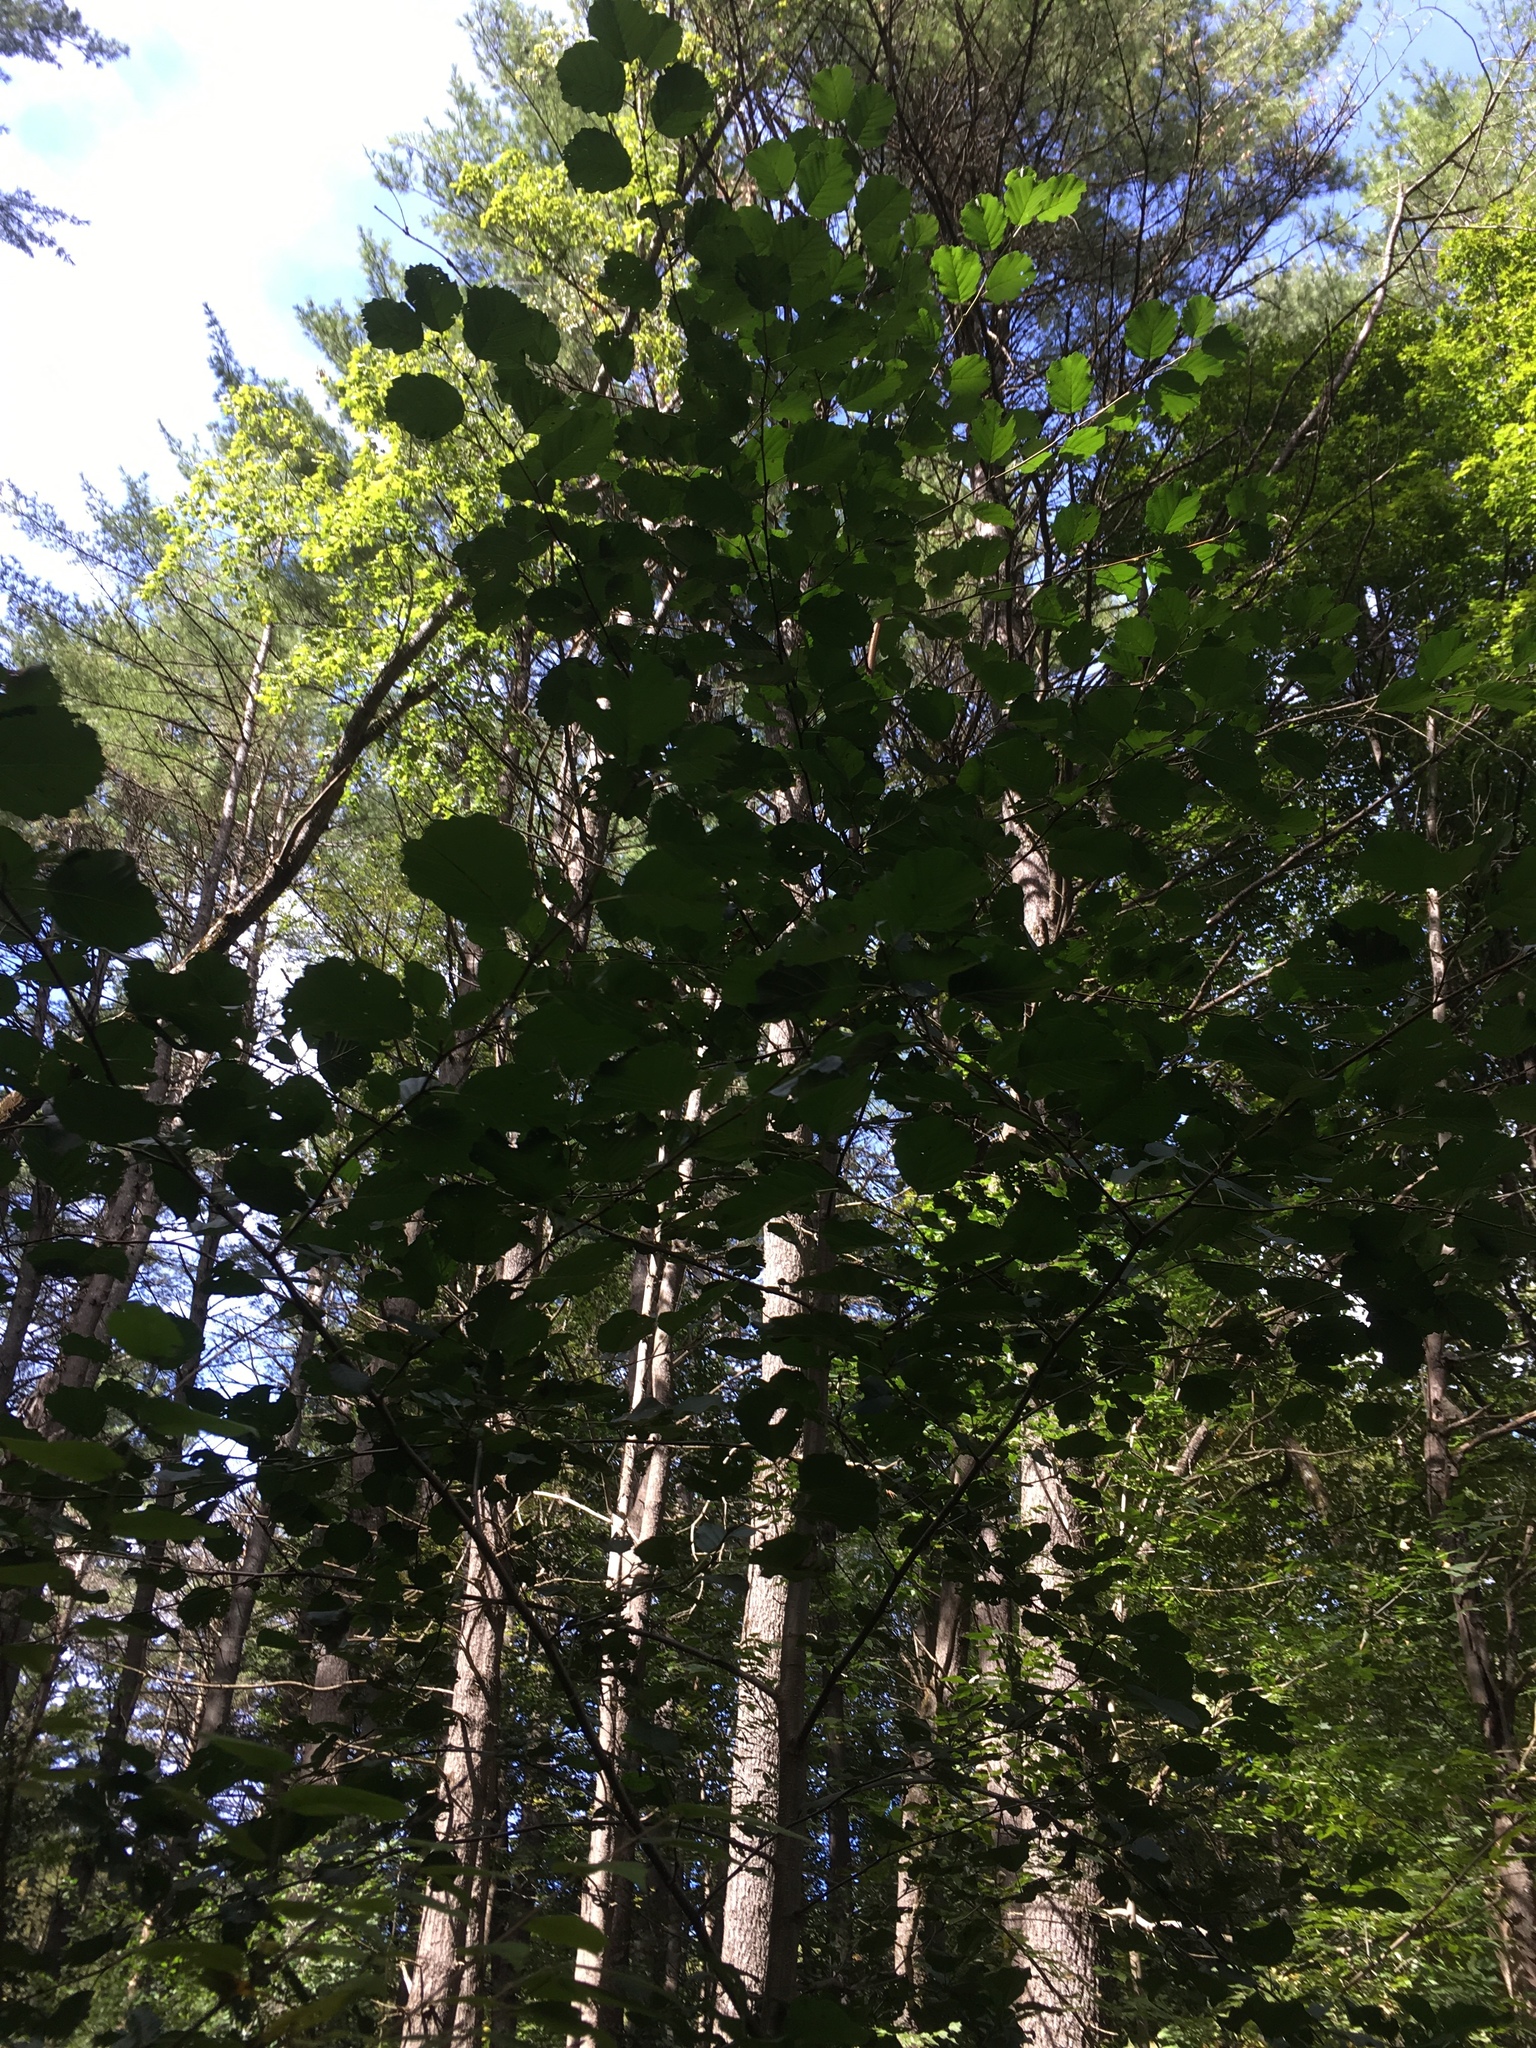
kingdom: Plantae
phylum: Tracheophyta
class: Magnoliopsida
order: Fagales
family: Betulaceae
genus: Alnus
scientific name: Alnus glutinosa
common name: Black alder
